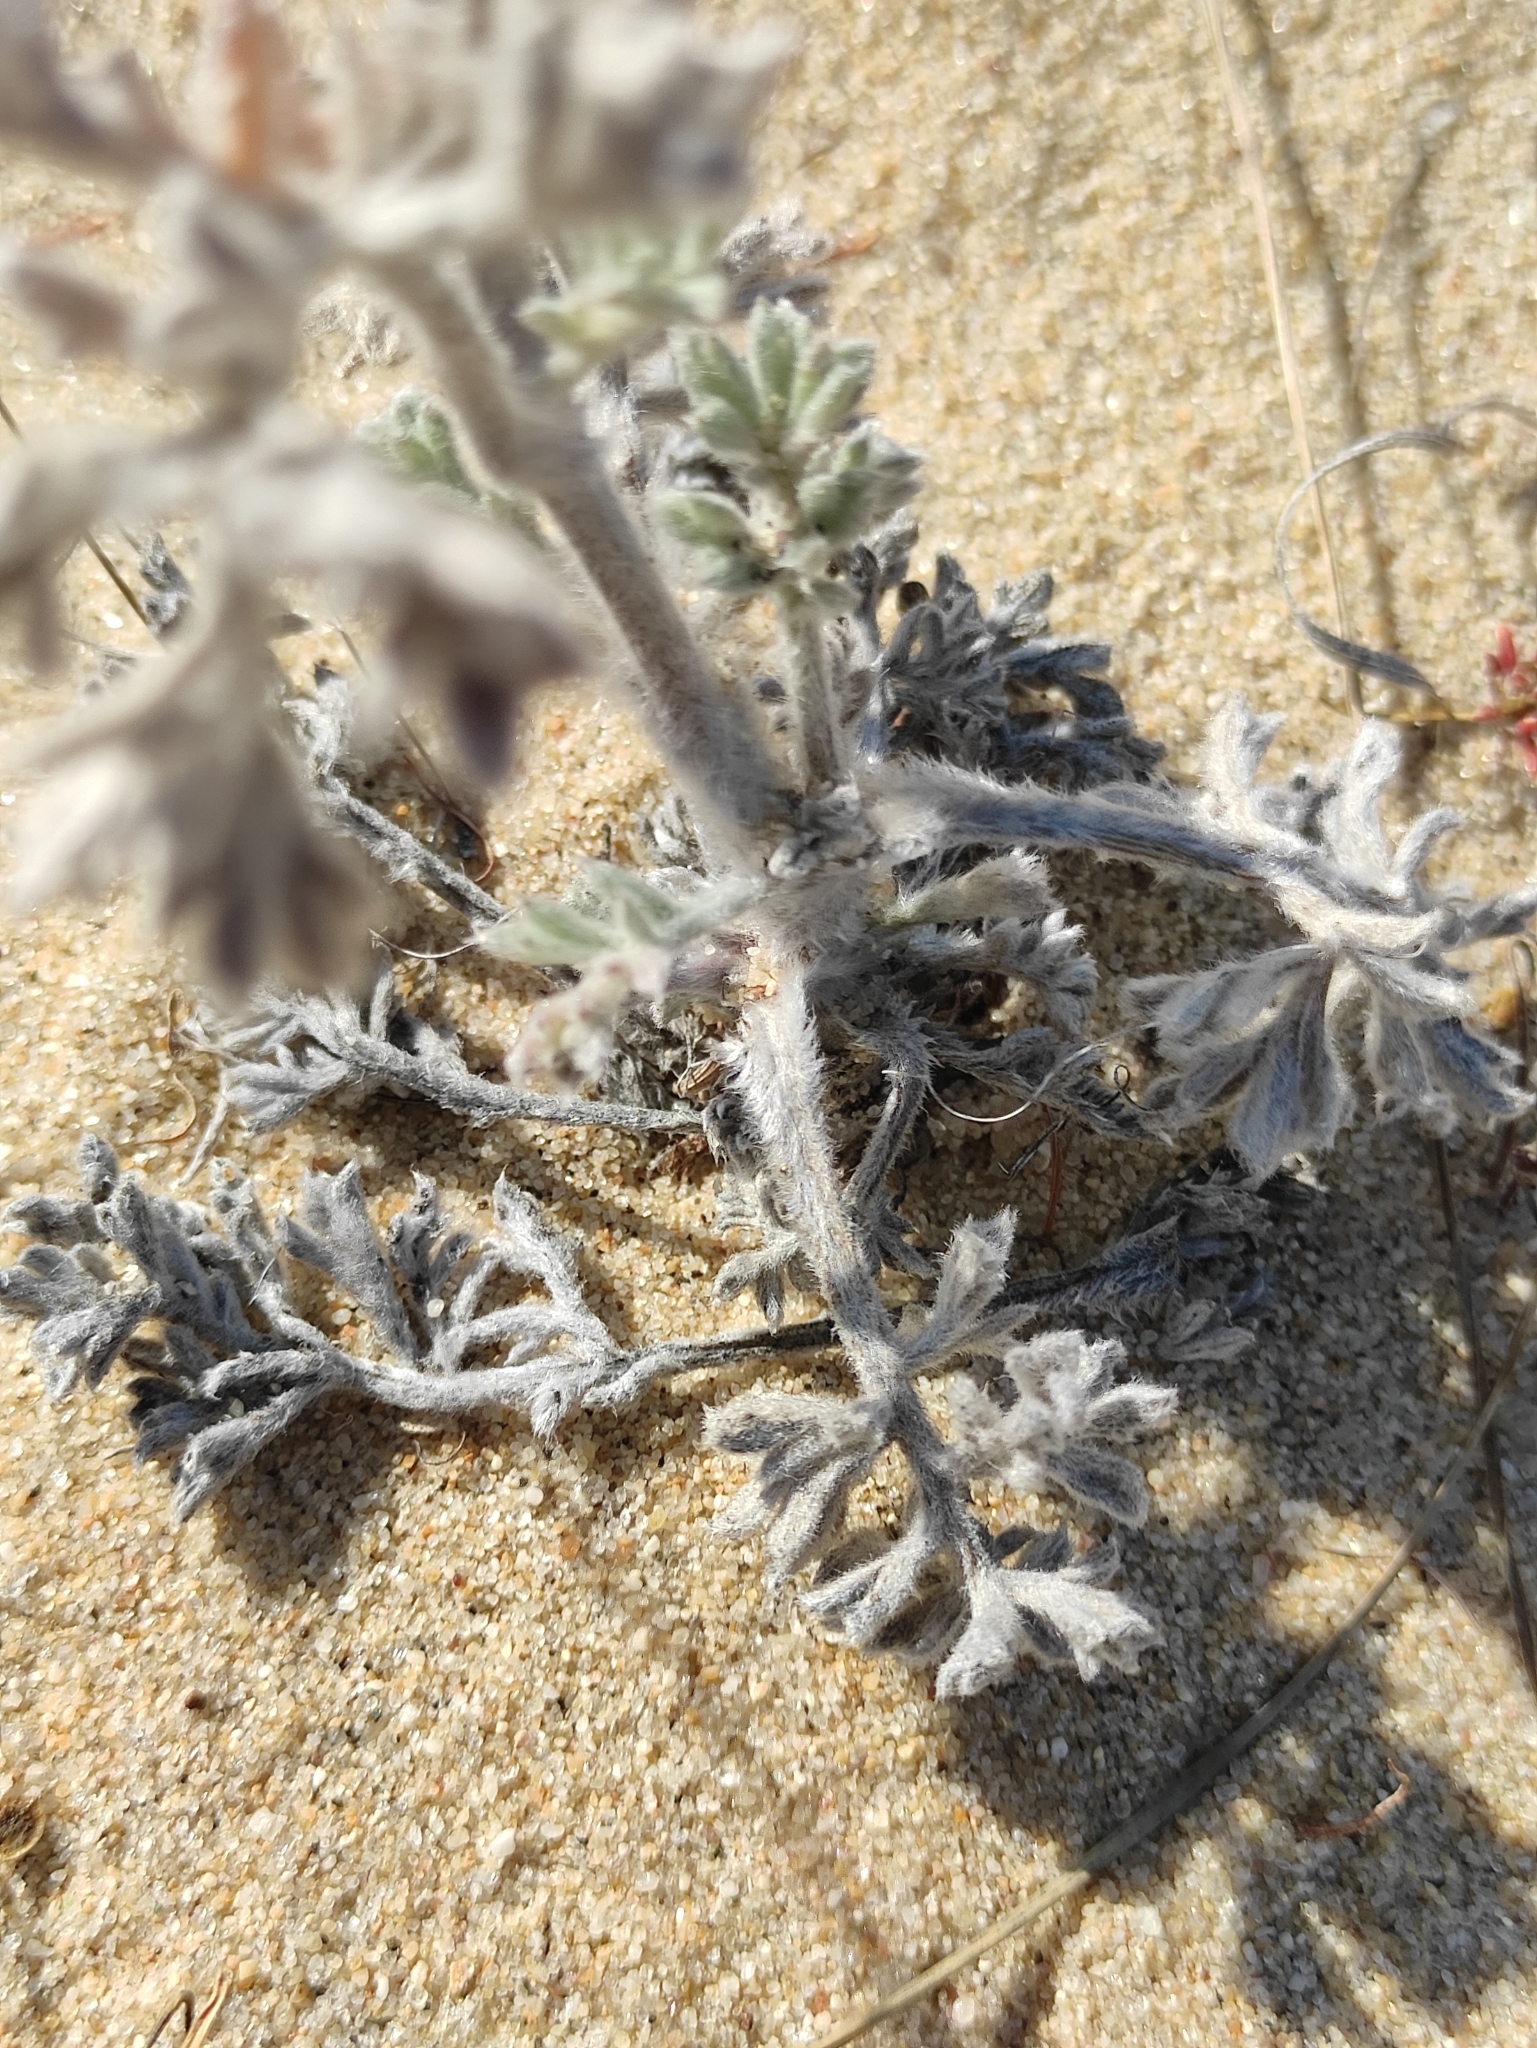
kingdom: Plantae
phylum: Tracheophyta
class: Magnoliopsida
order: Asterales
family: Asteraceae
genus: Artemisia
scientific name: Artemisia ledebouriana
